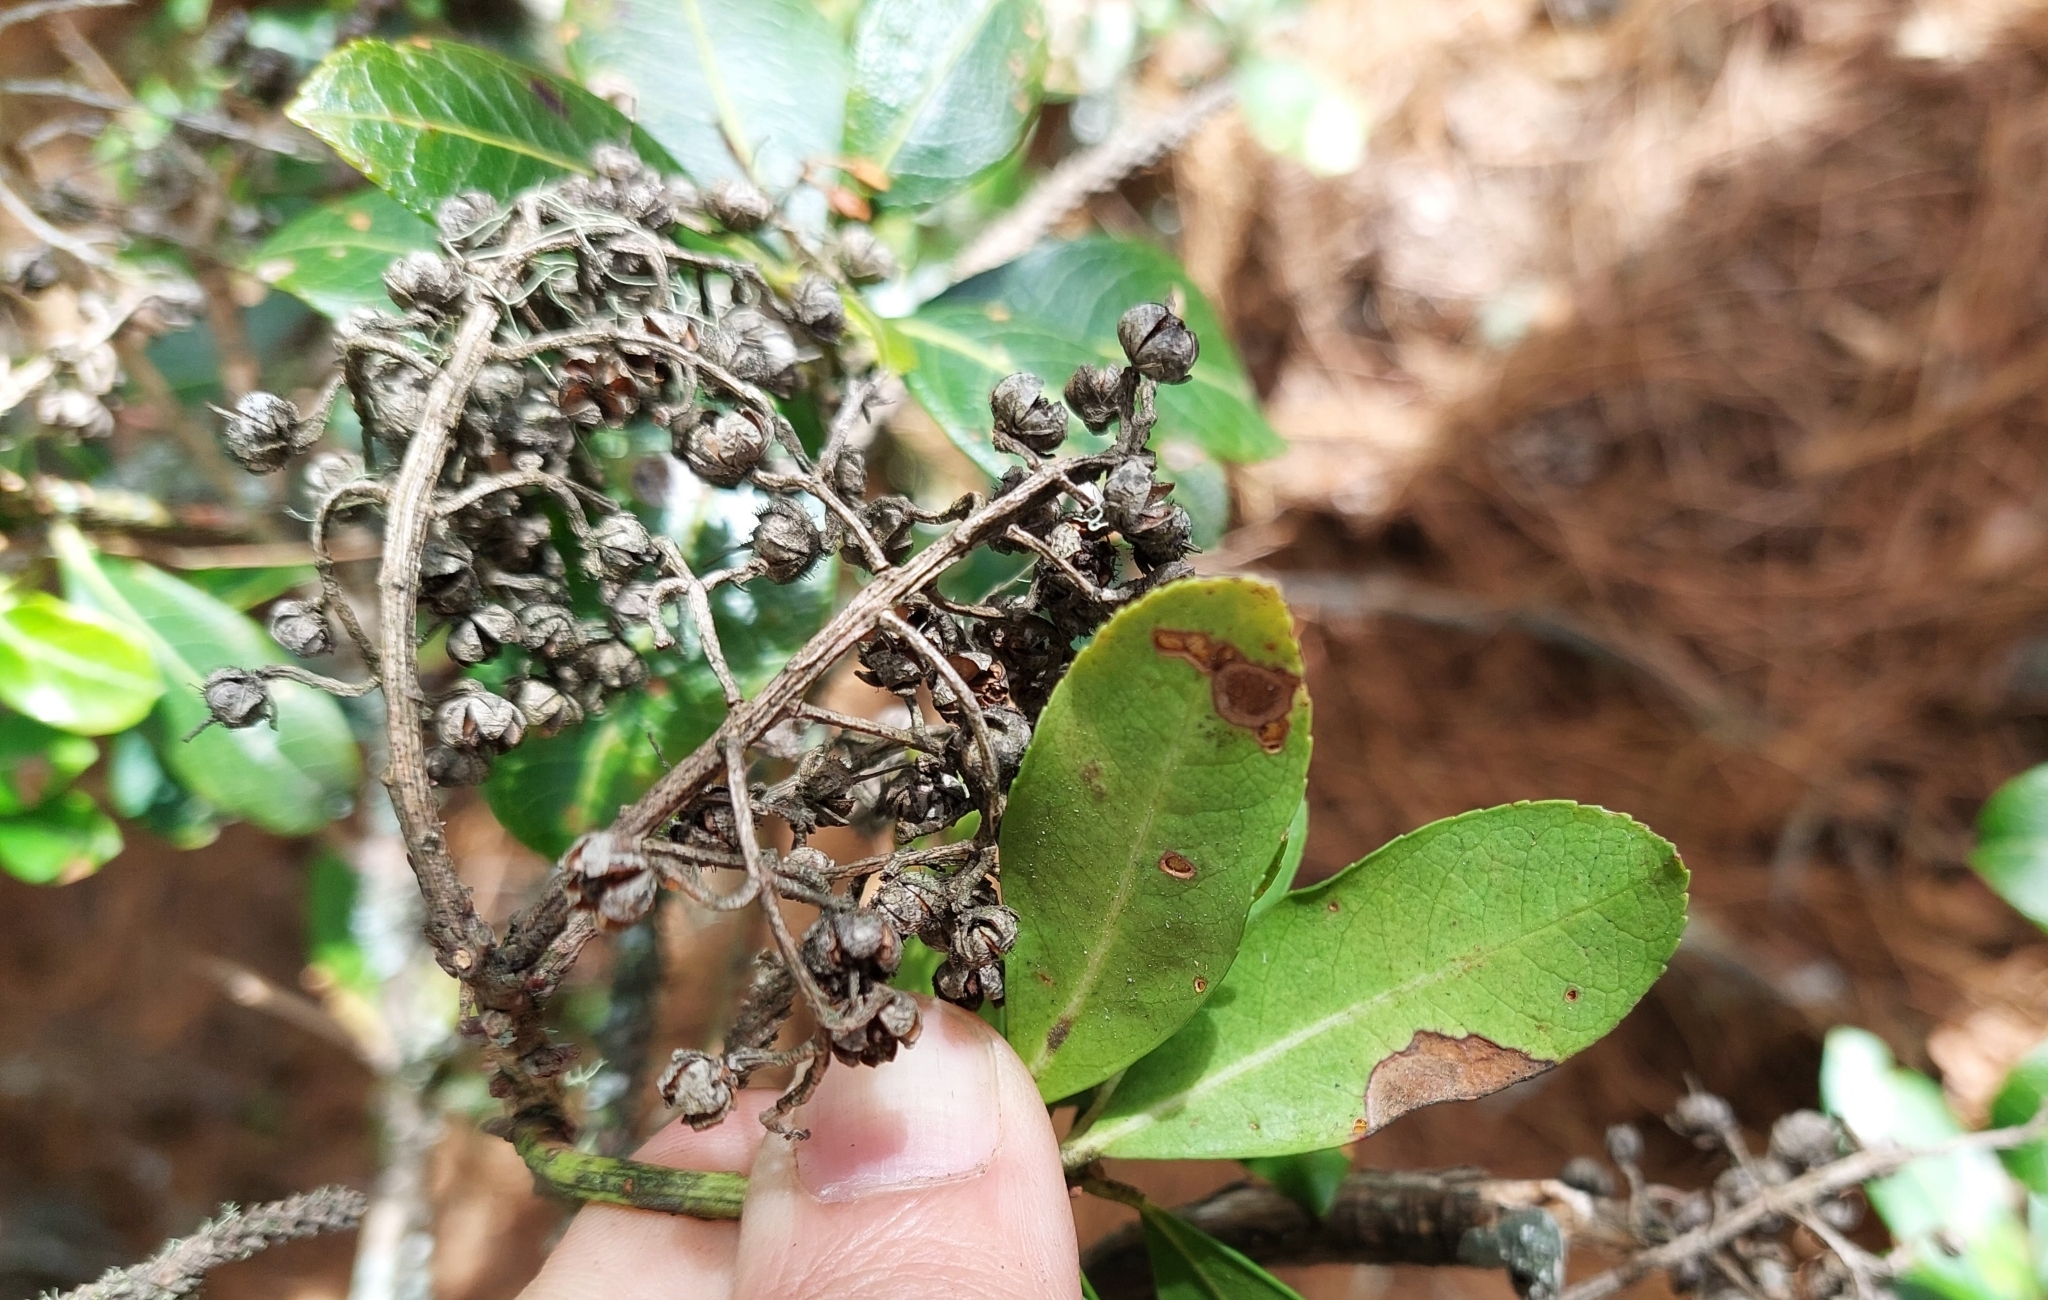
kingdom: Plantae
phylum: Tracheophyta
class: Magnoliopsida
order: Ericales
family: Ericaceae
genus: Pieris
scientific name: Pieris japonica
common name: Japanese pieris
